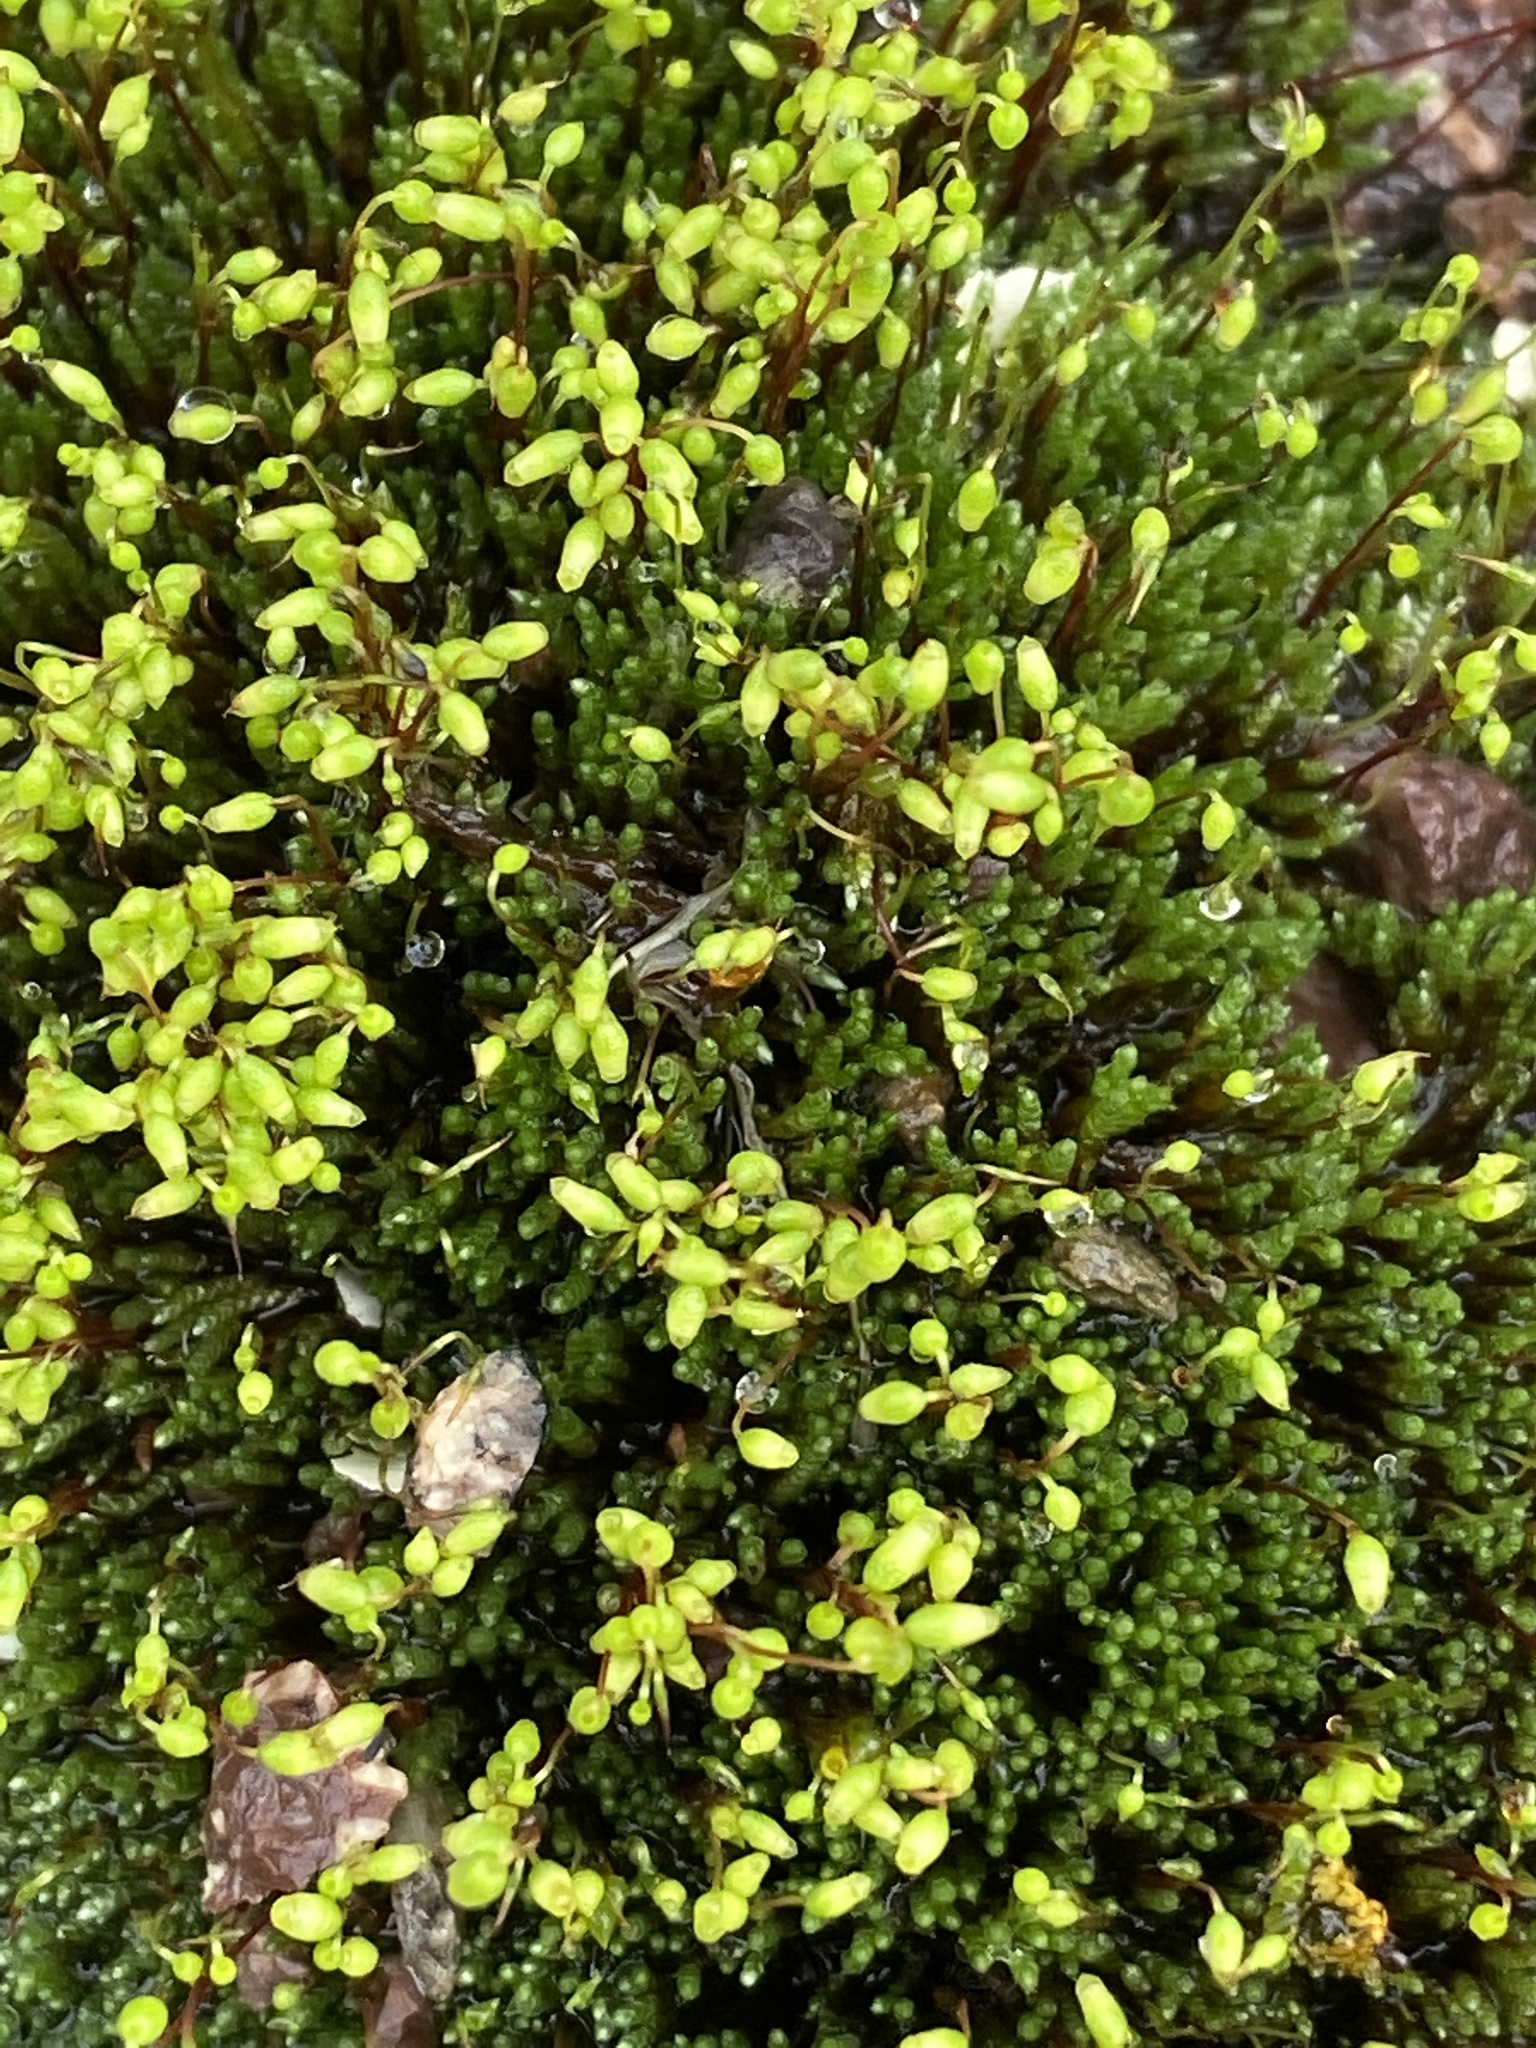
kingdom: Plantae
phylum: Bryophyta
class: Bryopsida
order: Bryales
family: Bryaceae
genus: Bryum
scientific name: Bryum argenteum
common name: Silver-moss
